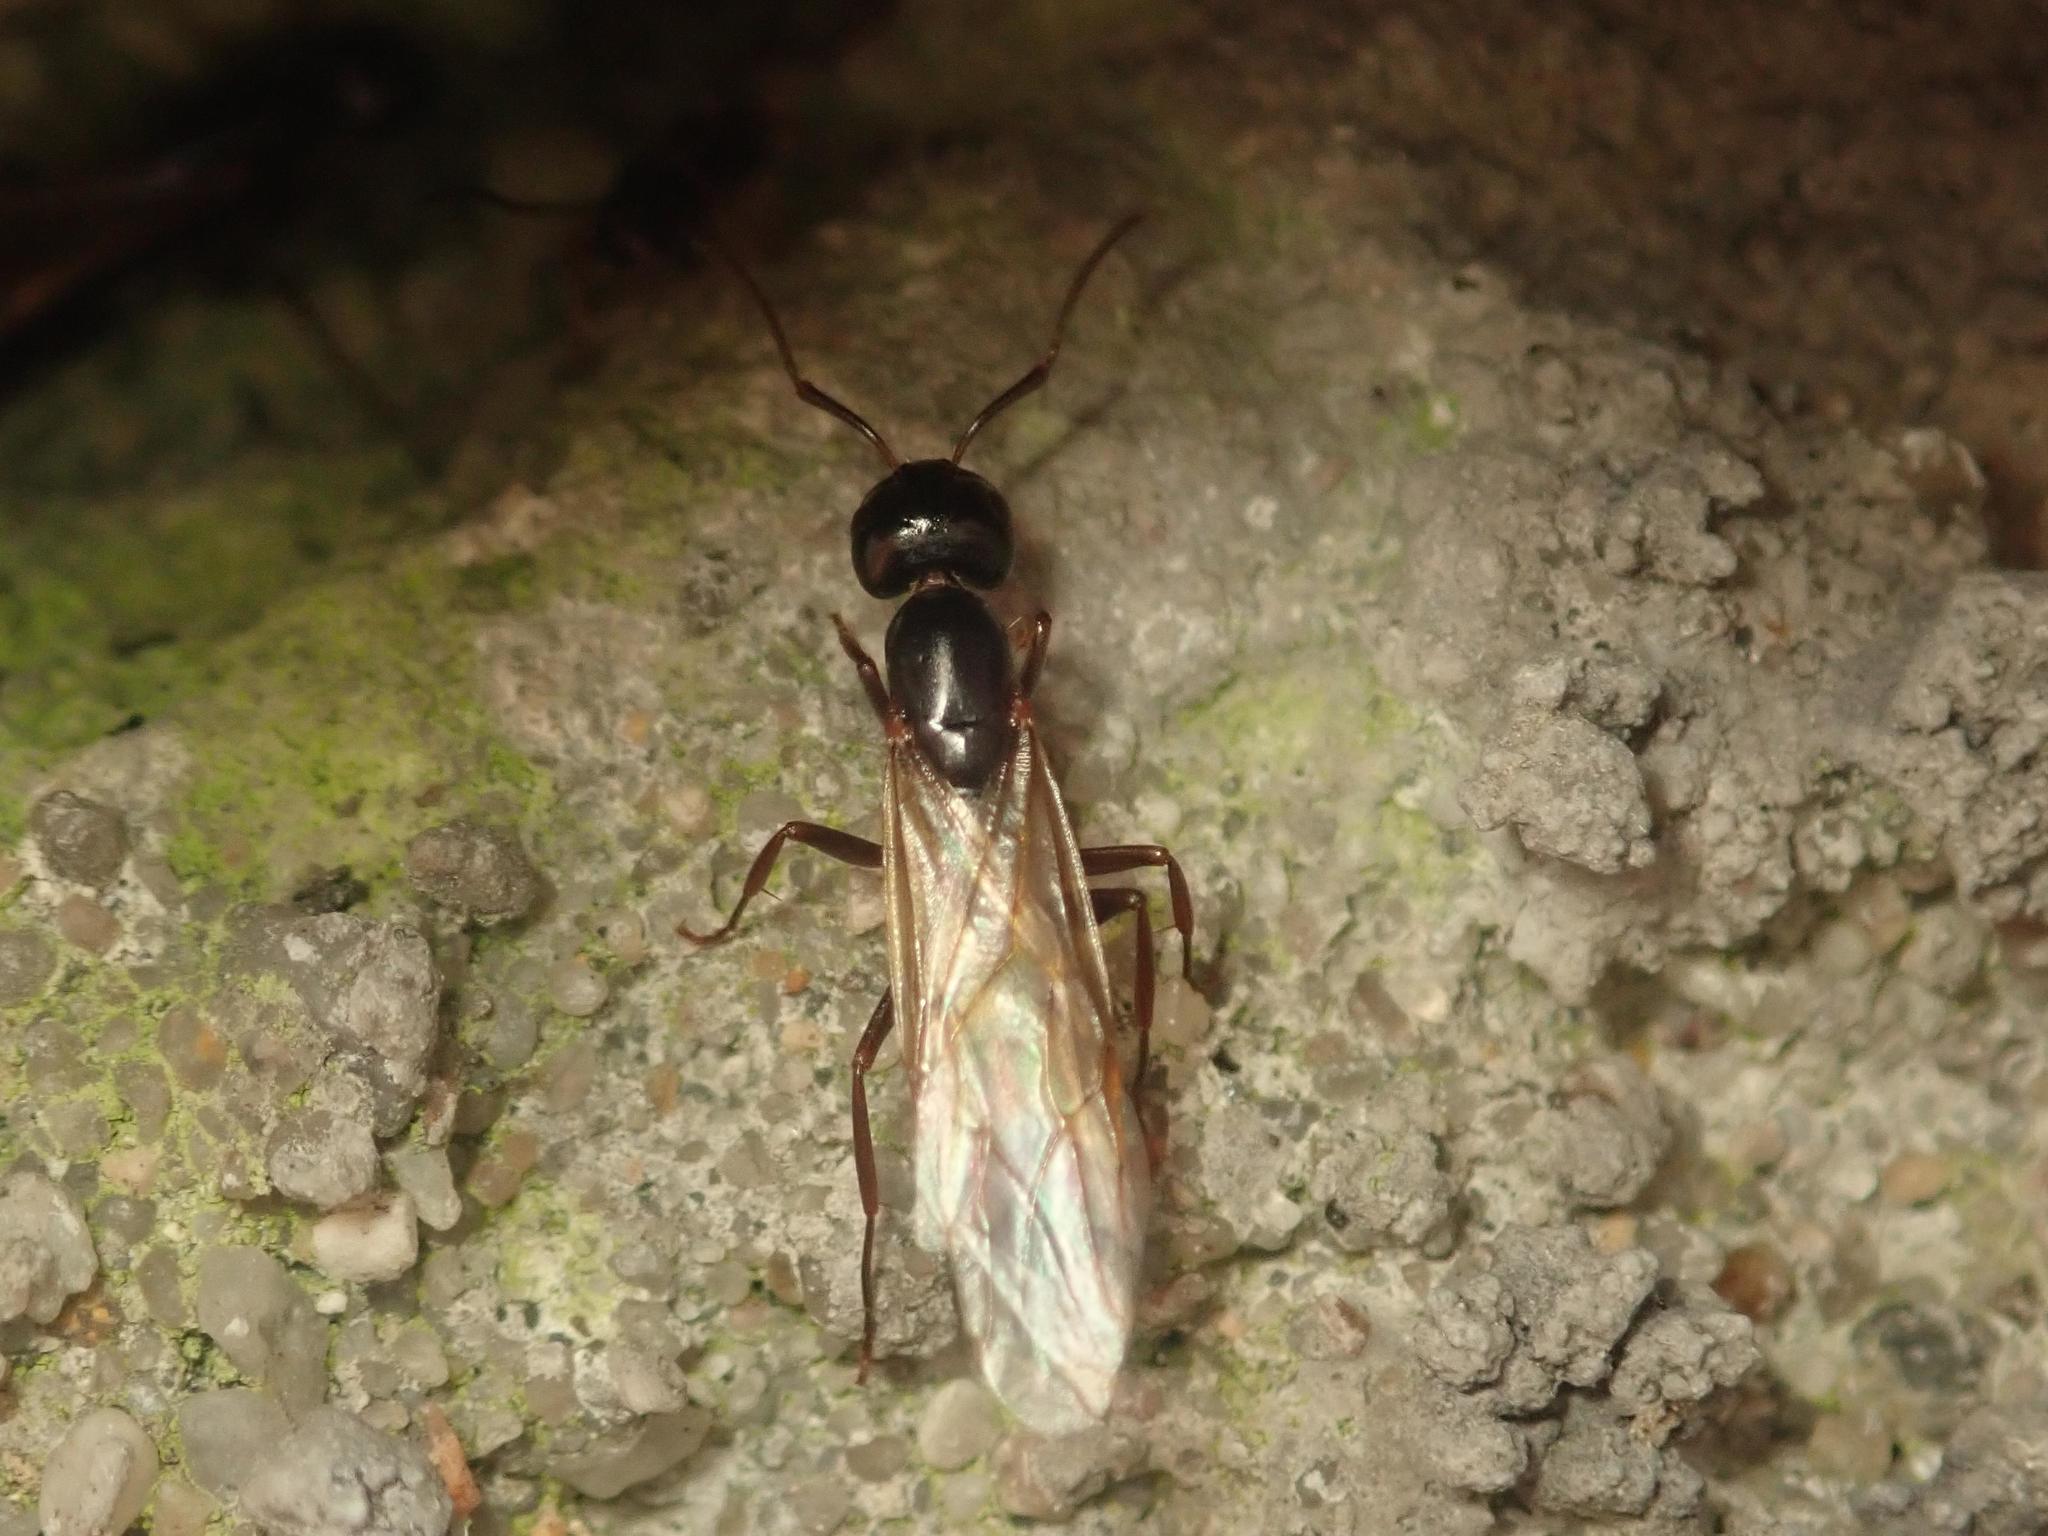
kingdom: Animalia
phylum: Arthropoda
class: Insecta
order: Hymenoptera
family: Formicidae
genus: Camponotus
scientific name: Camponotus fallax
